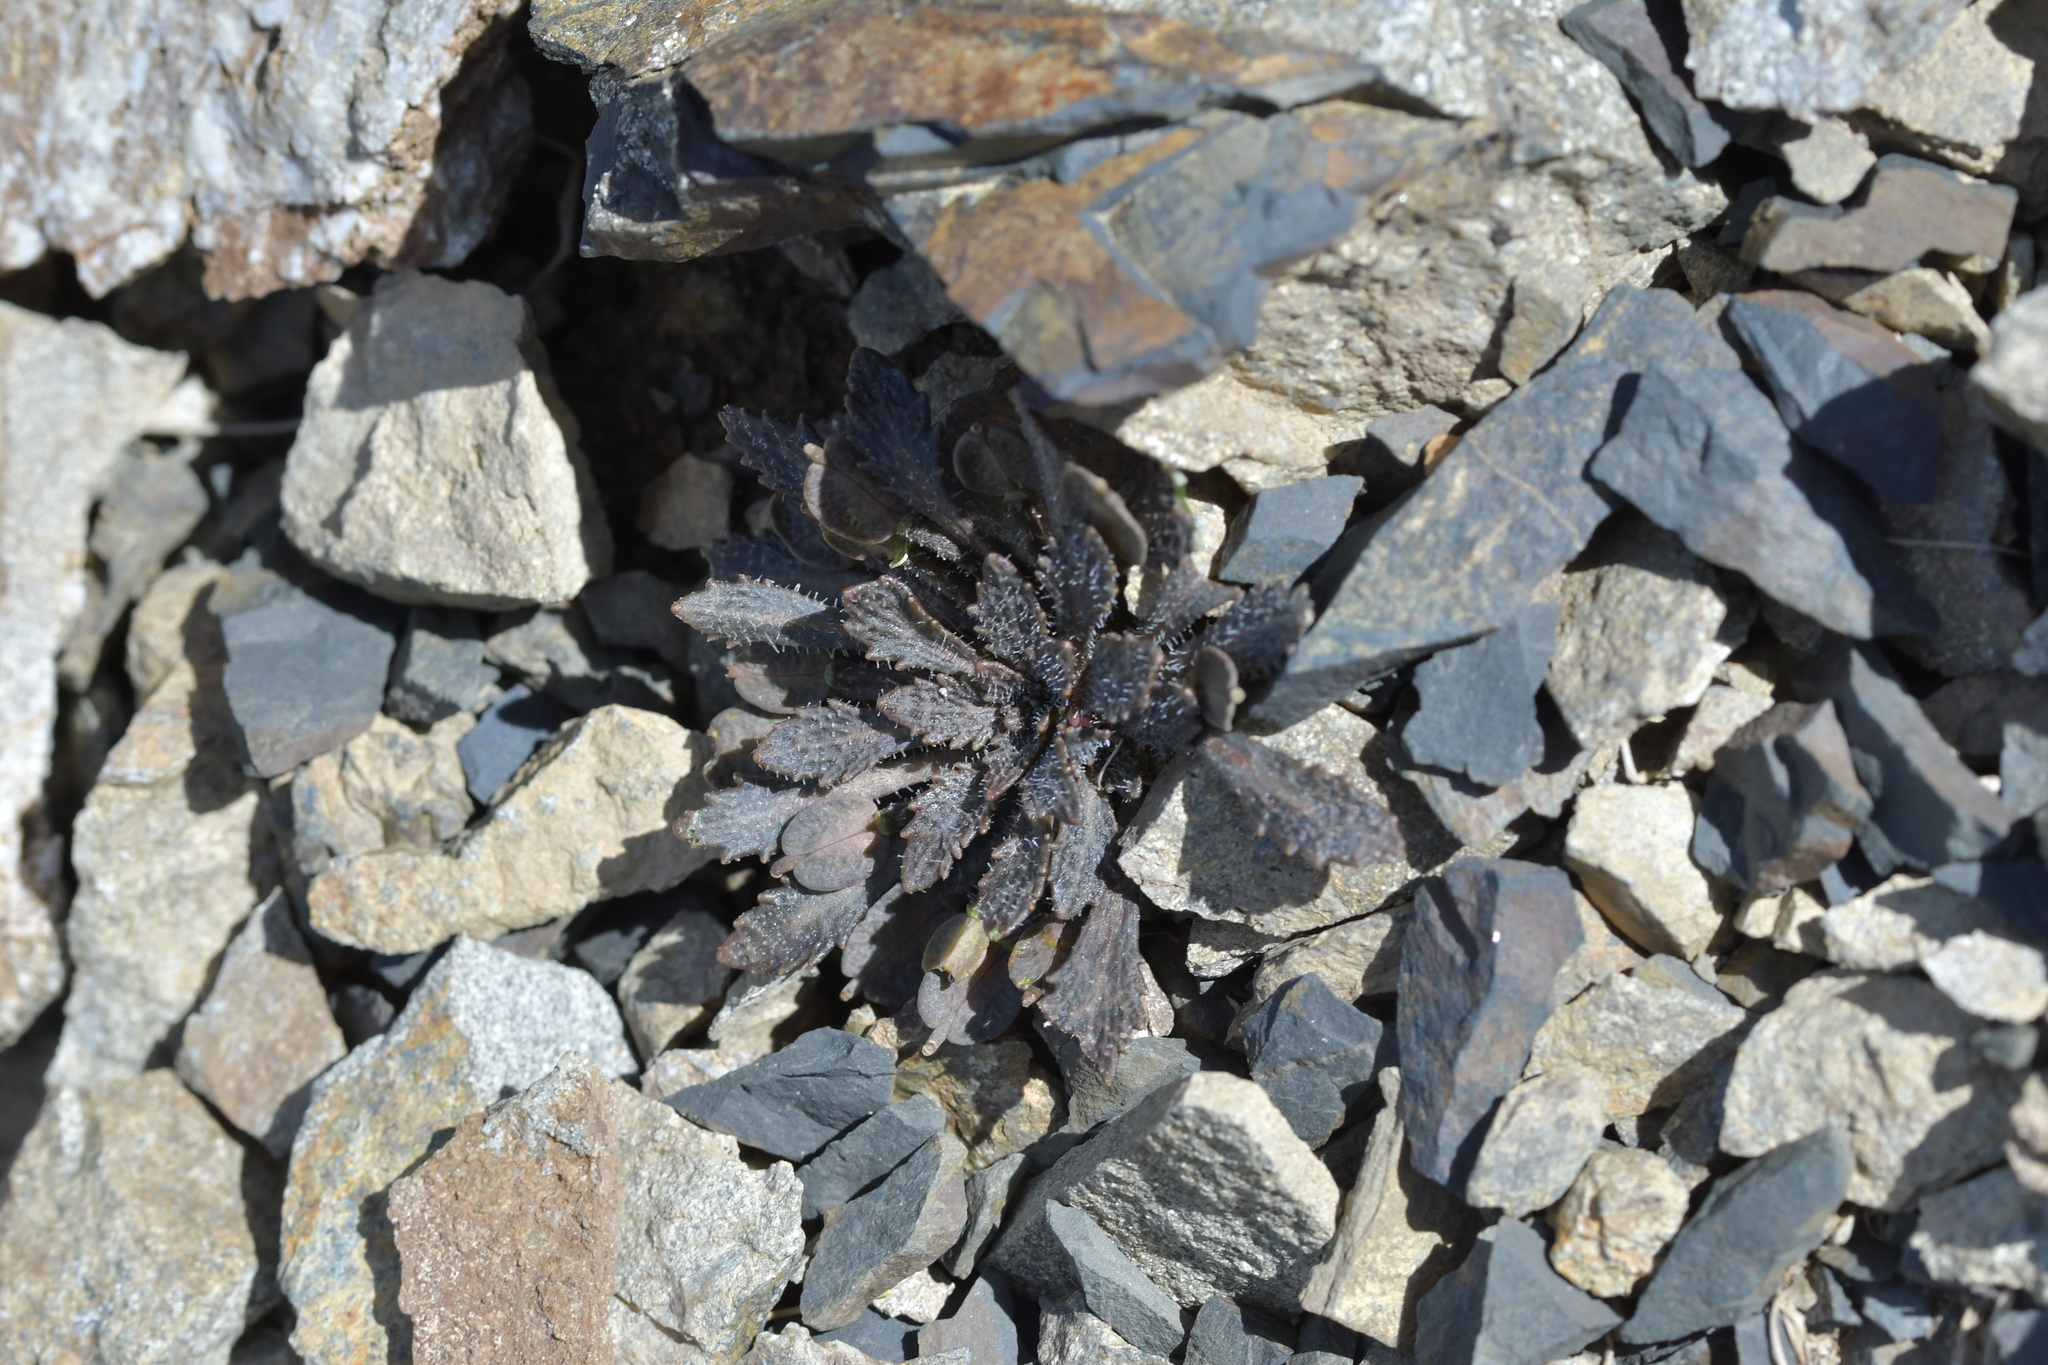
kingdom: Plantae
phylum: Tracheophyta
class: Magnoliopsida
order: Brassicales
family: Brassicaceae
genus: Notothlaspi
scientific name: Notothlaspi australe
